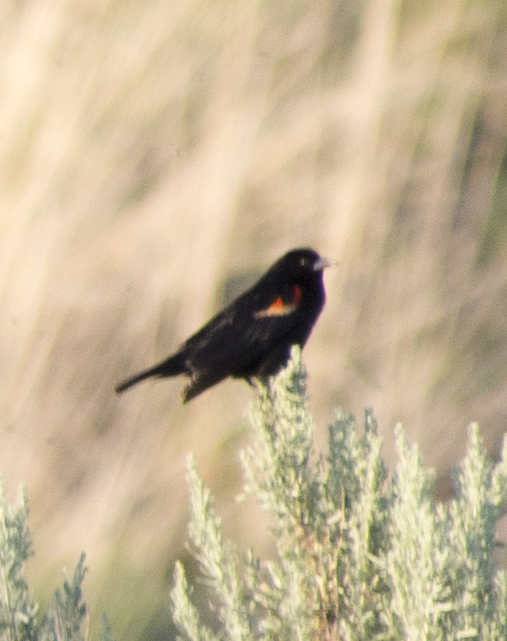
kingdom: Animalia
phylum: Chordata
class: Aves
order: Passeriformes
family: Icteridae
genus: Agelaius
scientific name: Agelaius phoeniceus
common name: Red-winged blackbird
